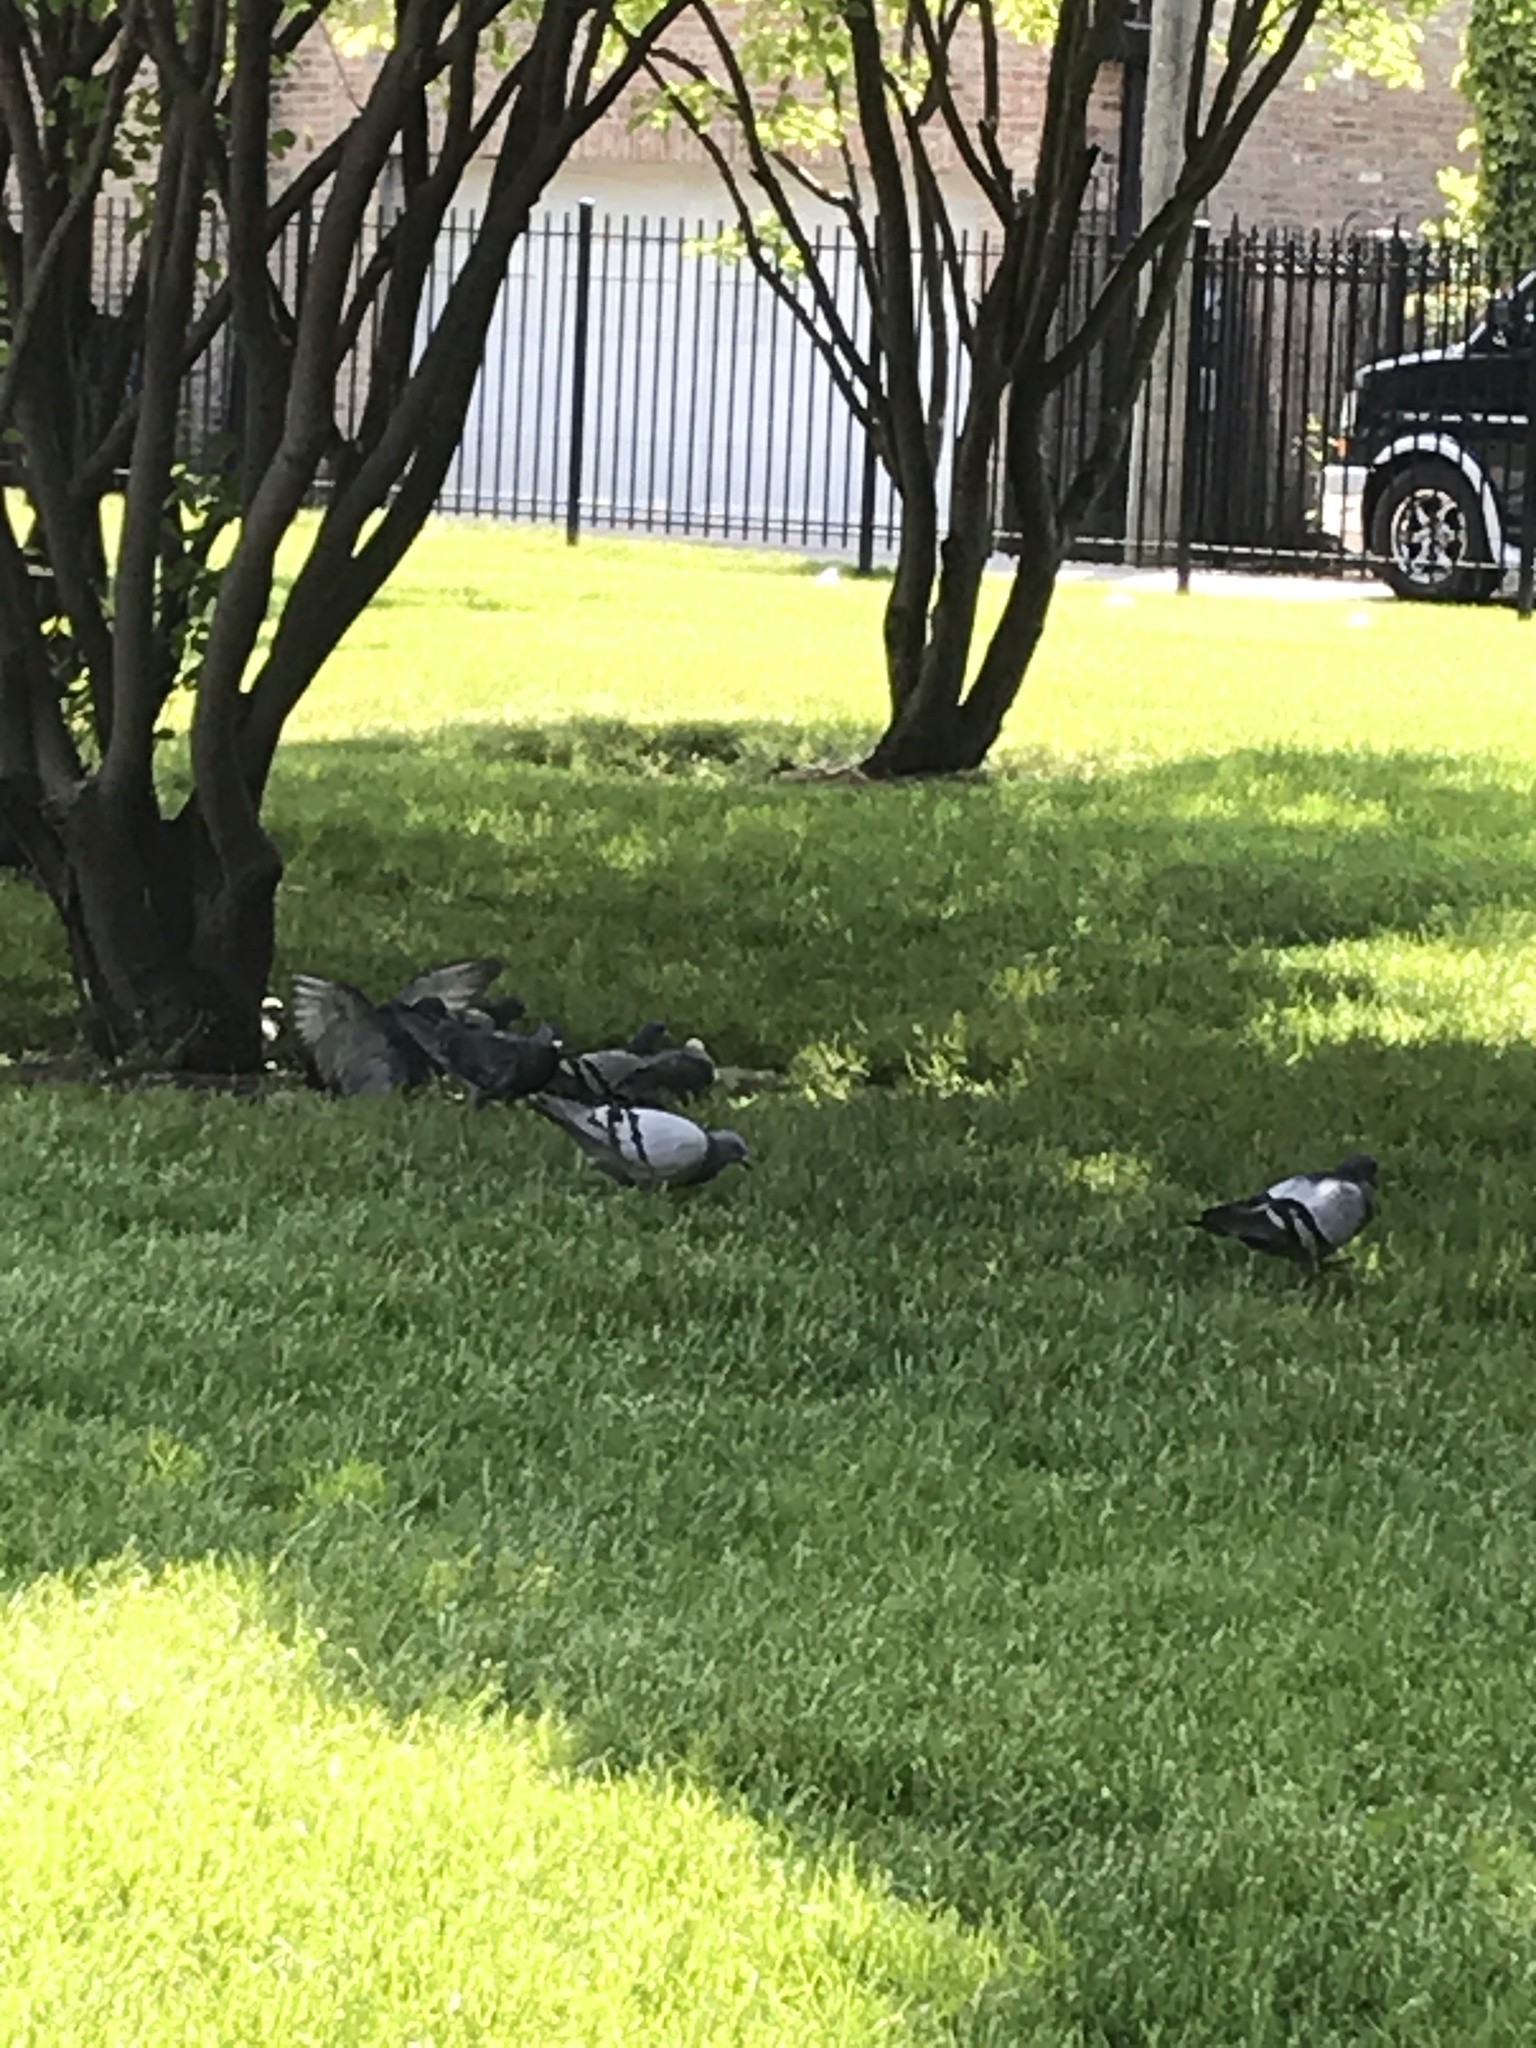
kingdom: Animalia
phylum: Chordata
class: Aves
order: Columbiformes
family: Columbidae
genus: Columba
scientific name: Columba livia
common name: Rock pigeon
